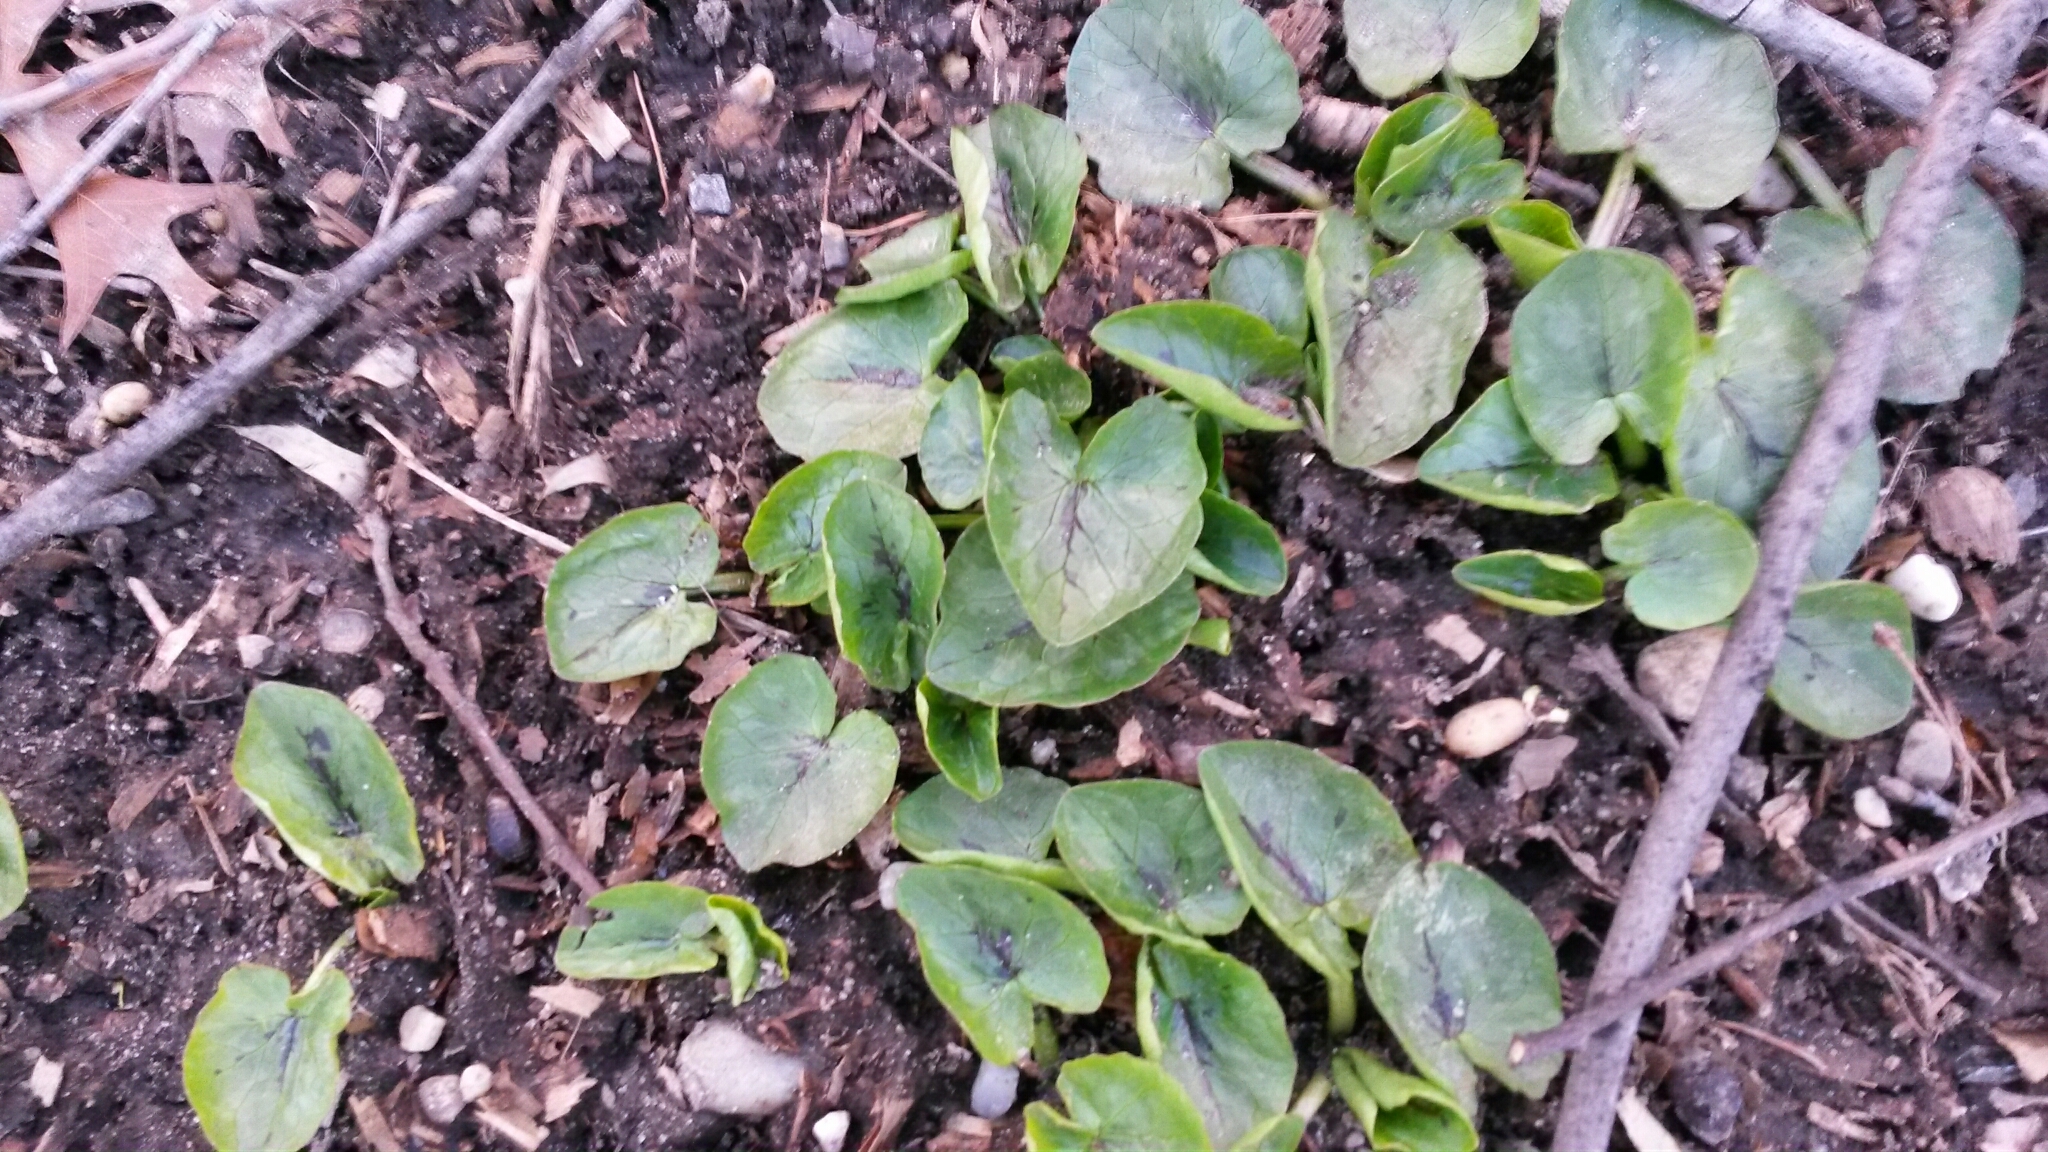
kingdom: Plantae
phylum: Tracheophyta
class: Magnoliopsida
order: Ranunculales
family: Ranunculaceae
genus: Ficaria
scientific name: Ficaria verna
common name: Lesser celandine
